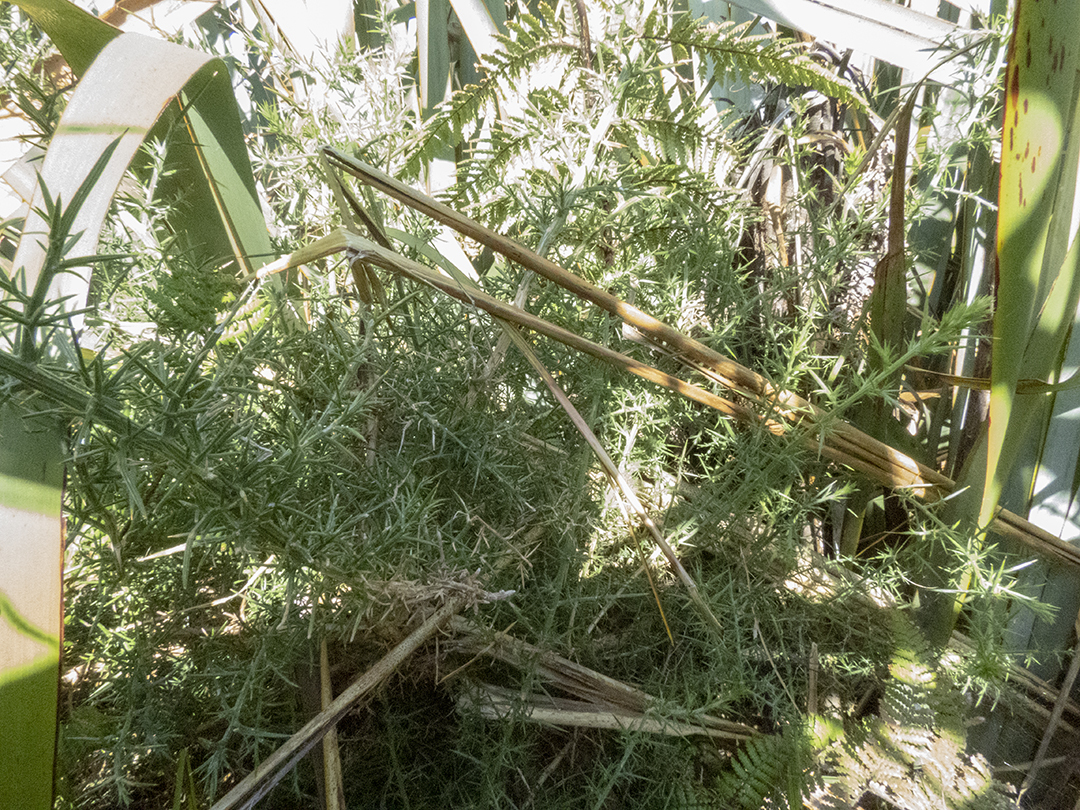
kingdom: Plantae
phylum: Tracheophyta
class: Magnoliopsida
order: Fabales
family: Fabaceae
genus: Ulex
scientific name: Ulex europaeus
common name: Common gorse
